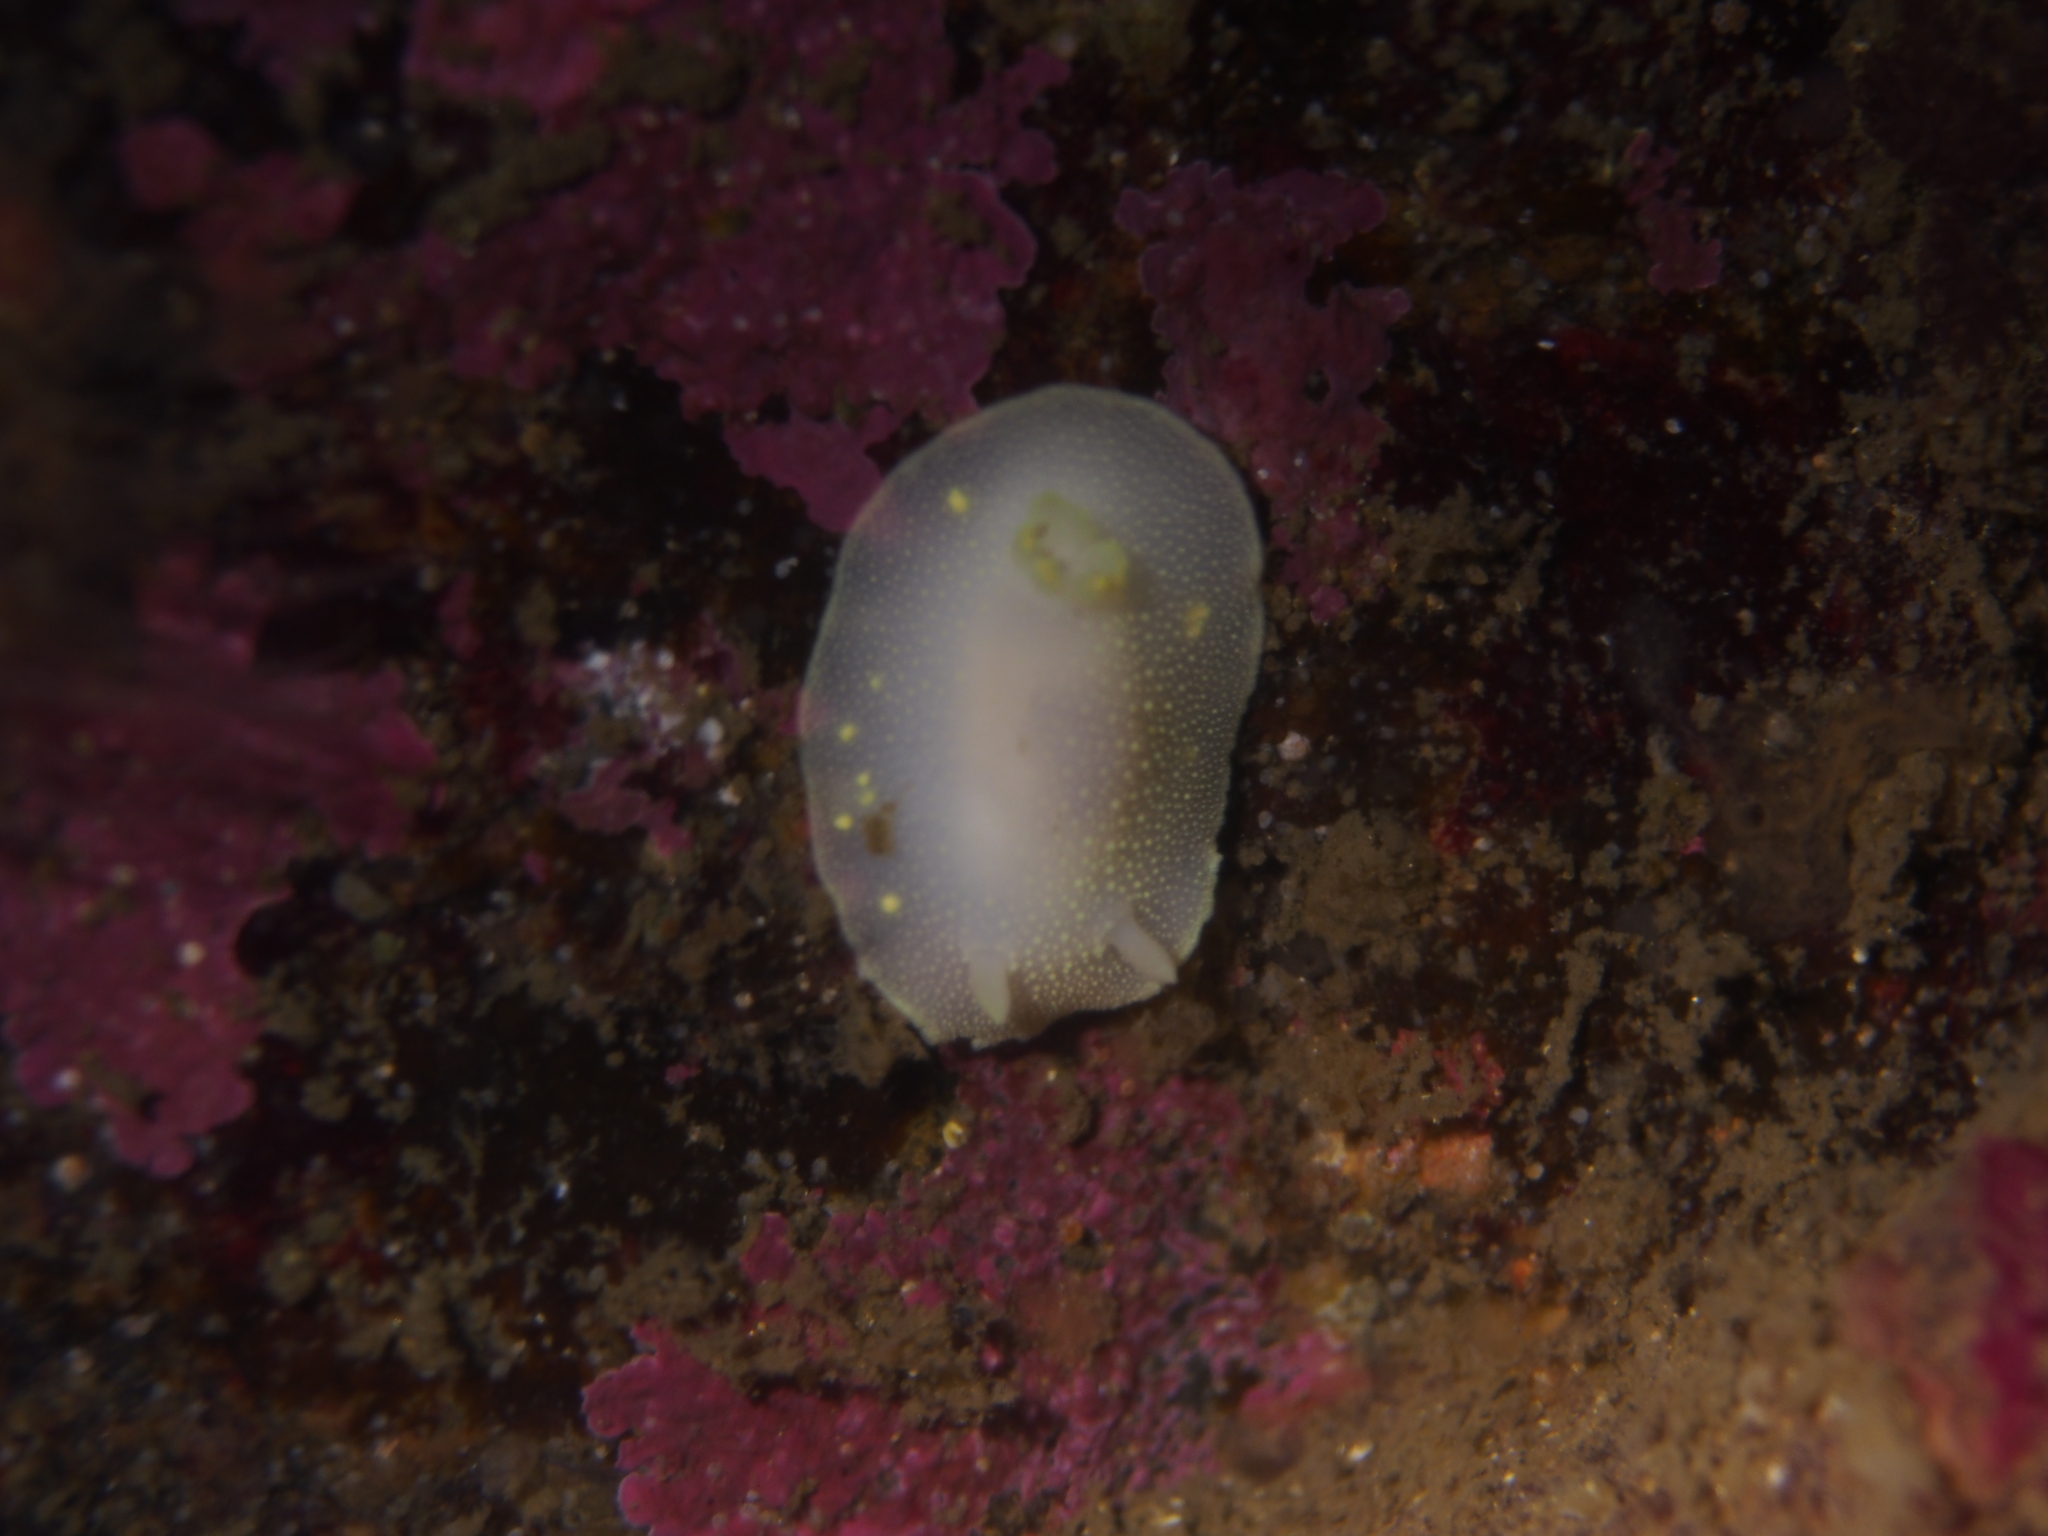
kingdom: Animalia
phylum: Mollusca
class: Gastropoda
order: Nudibranchia
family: Cadlinidae
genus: Cadlina
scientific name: Cadlina laevis
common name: White atlantic cadlina
